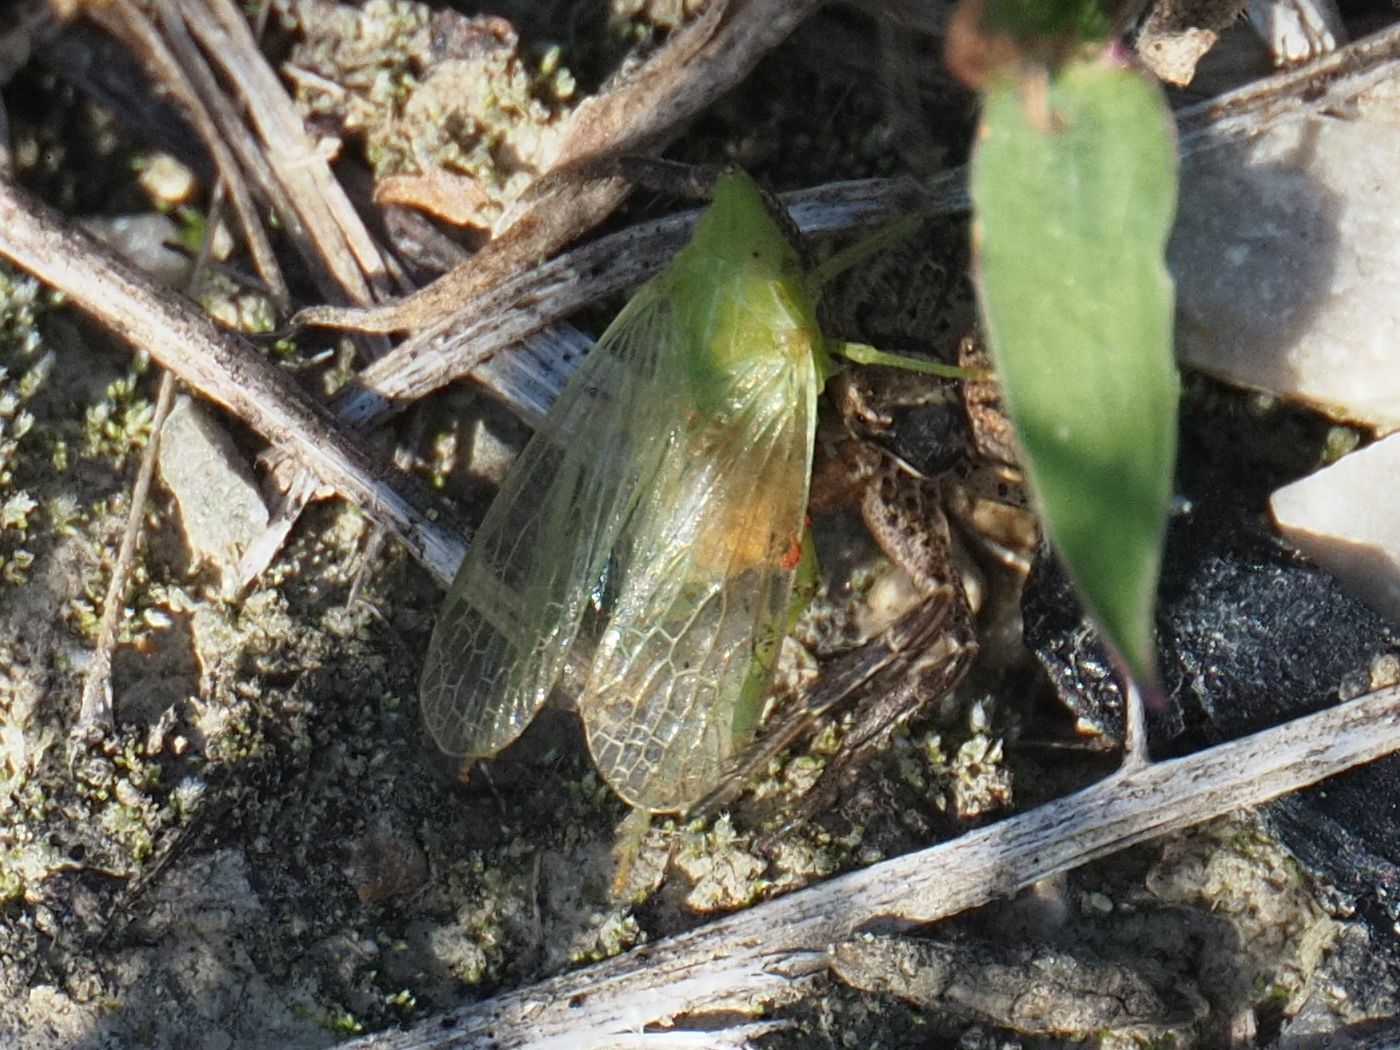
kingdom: Animalia
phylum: Arthropoda
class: Insecta
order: Hemiptera
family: Dictyopharidae
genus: Dictyophara
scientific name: Dictyophara europaea
